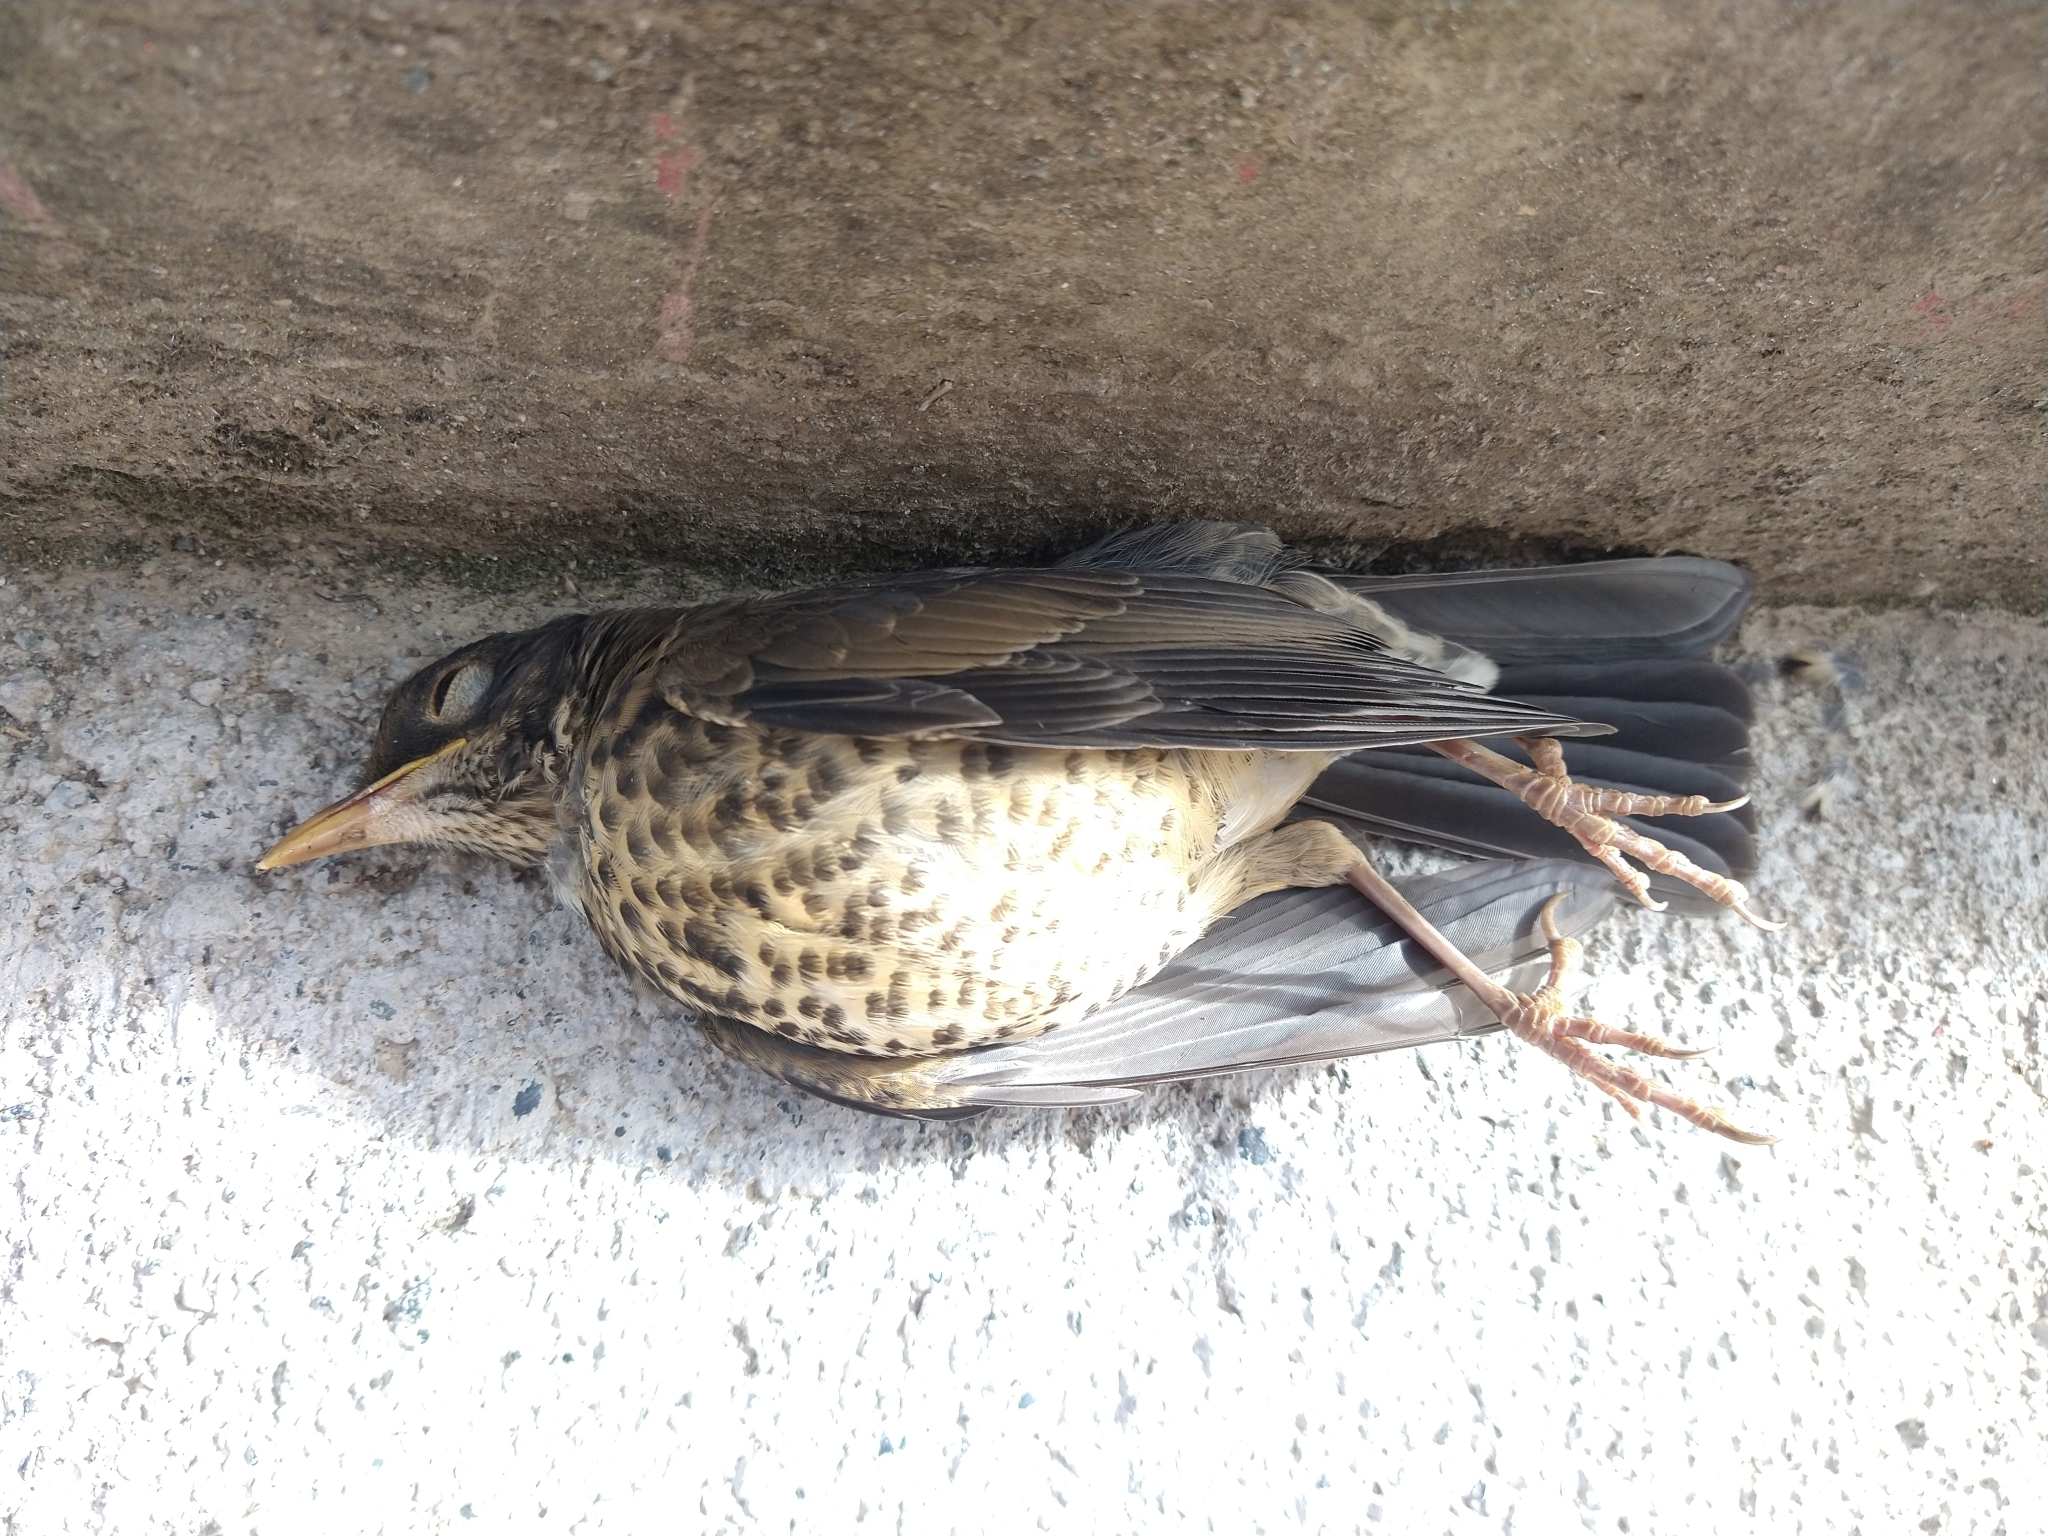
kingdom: Animalia
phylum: Chordata
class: Aves
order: Passeriformes
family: Turdidae
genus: Turdus
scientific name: Turdus falcklandii
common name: Austral thrush
